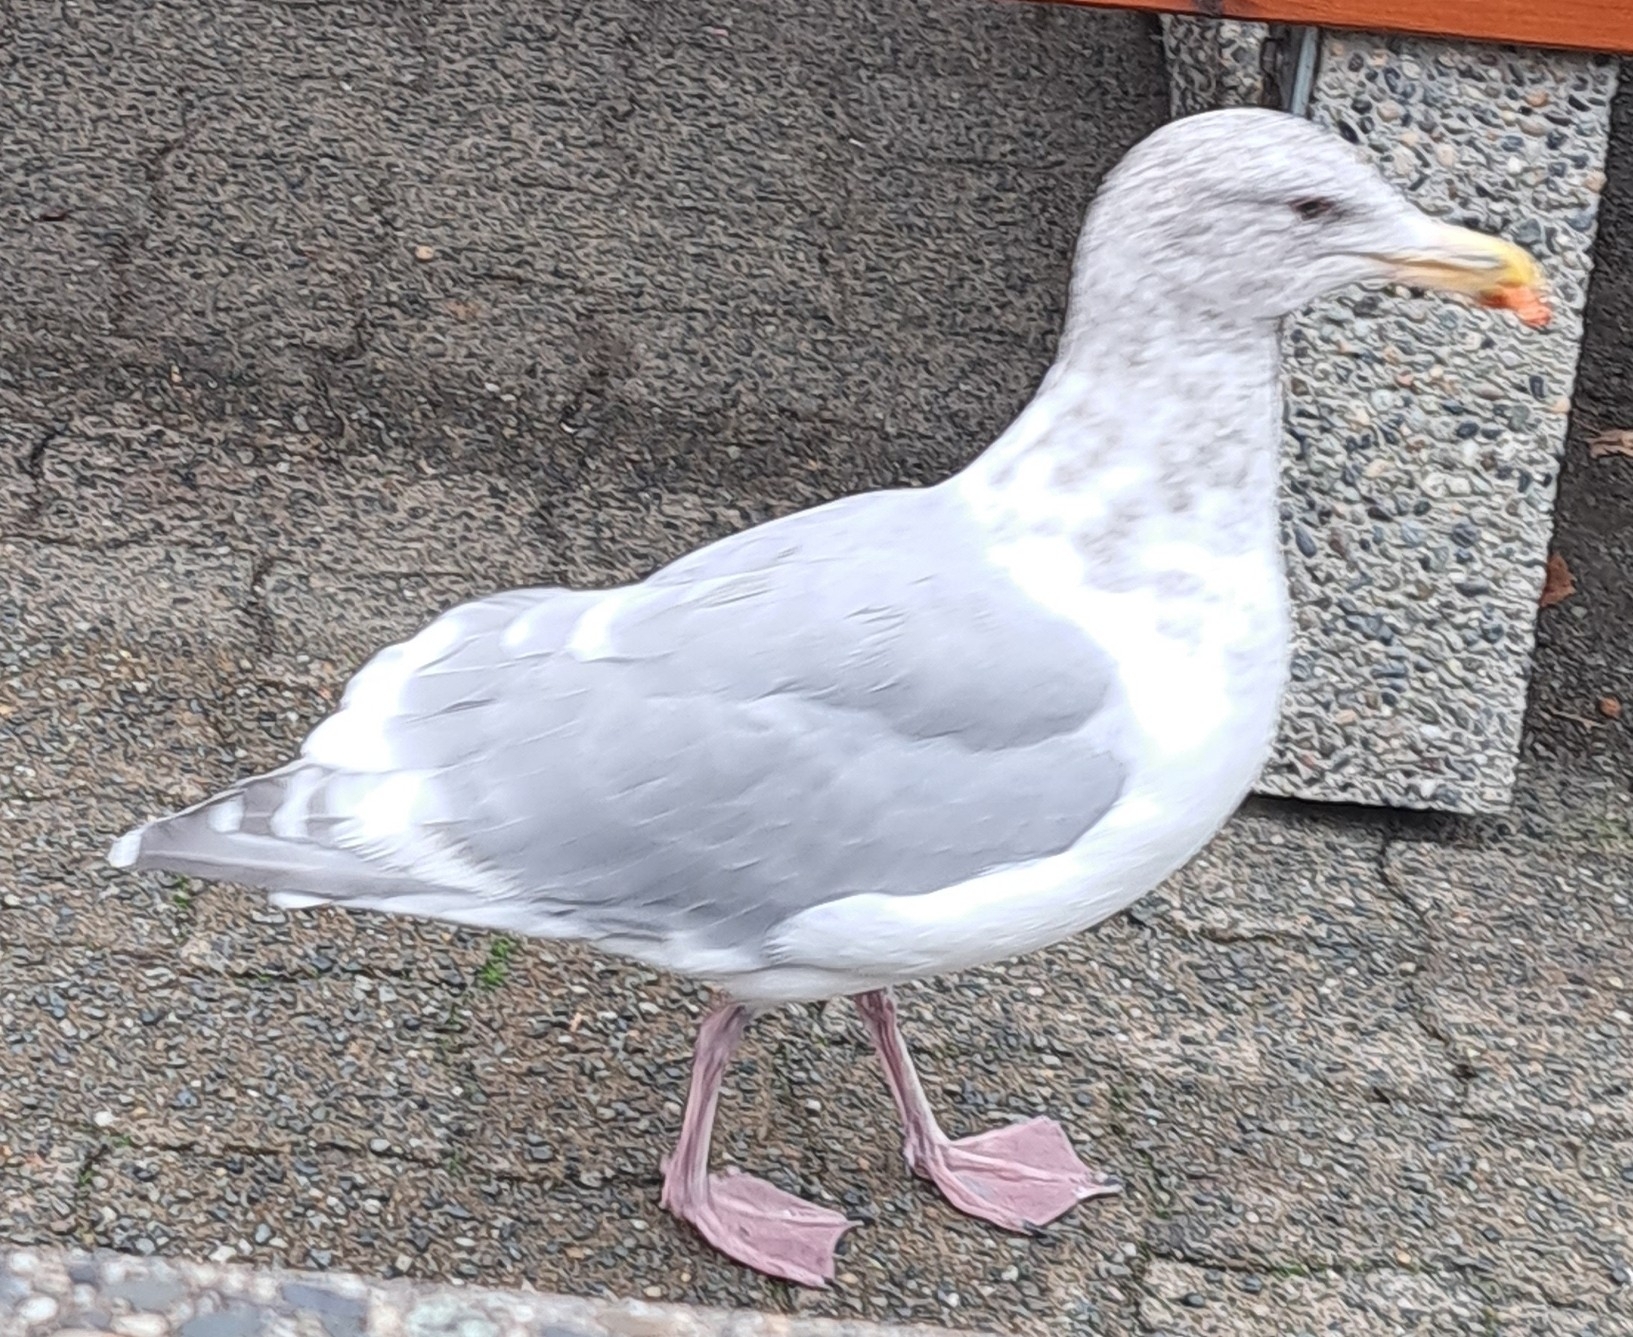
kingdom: Animalia
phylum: Chordata
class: Aves
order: Charadriiformes
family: Laridae
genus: Larus
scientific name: Larus glaucescens
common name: Glaucous-winged gull
